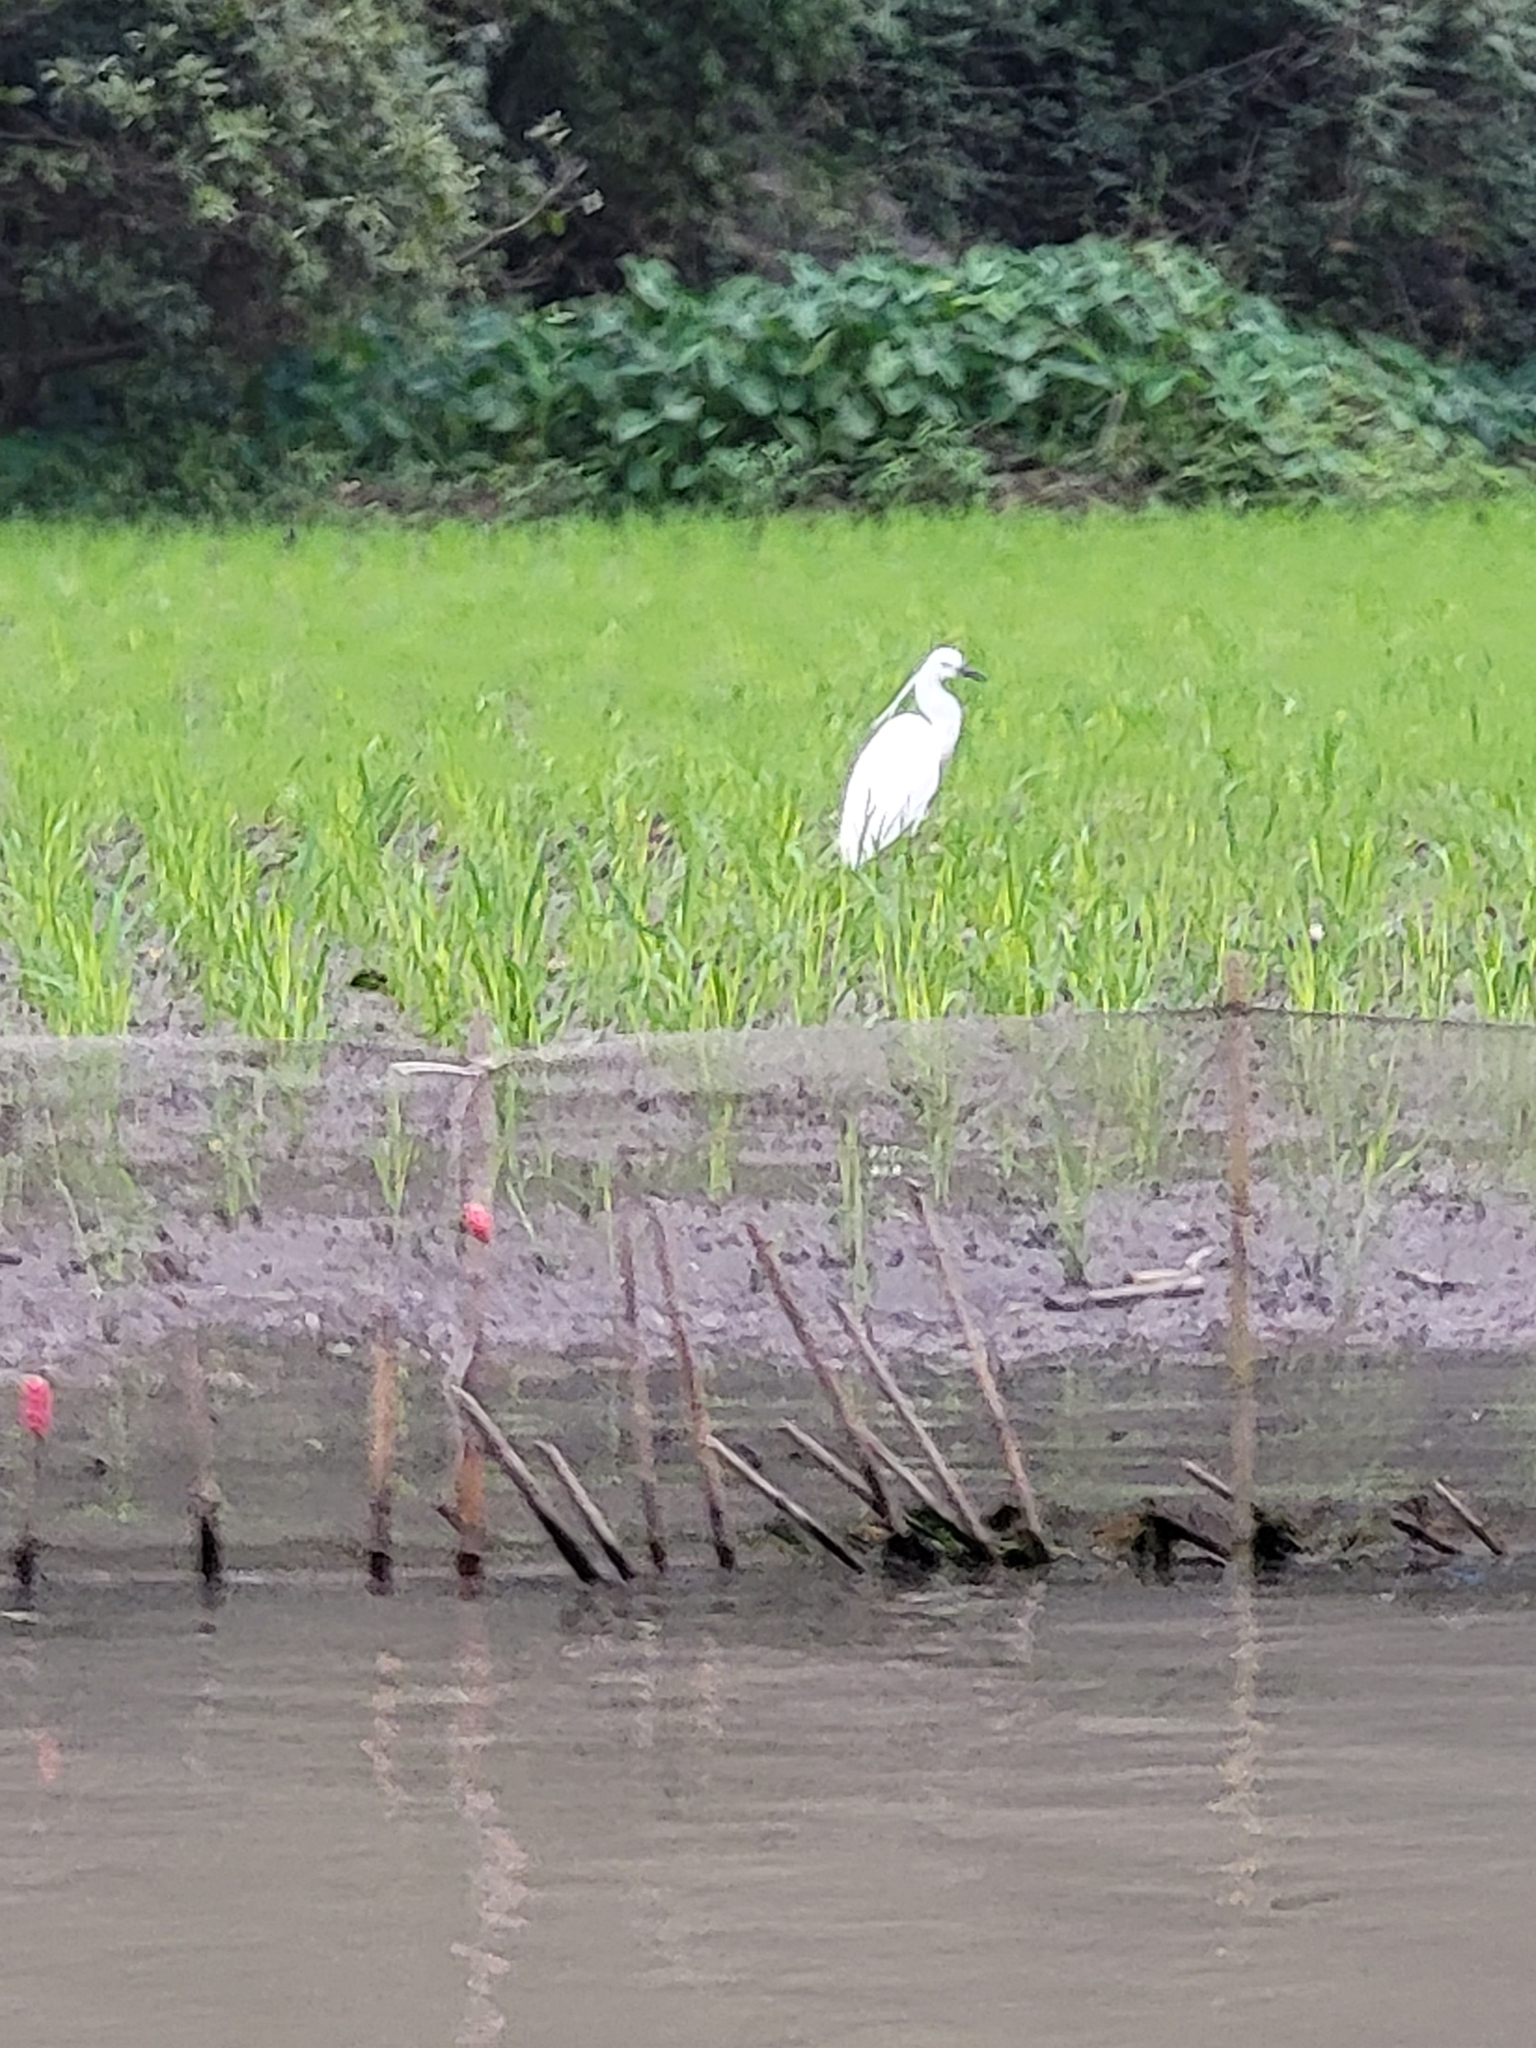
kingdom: Animalia
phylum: Chordata
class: Aves
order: Pelecaniformes
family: Ardeidae
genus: Egretta
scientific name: Egretta garzetta
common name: Little egret
